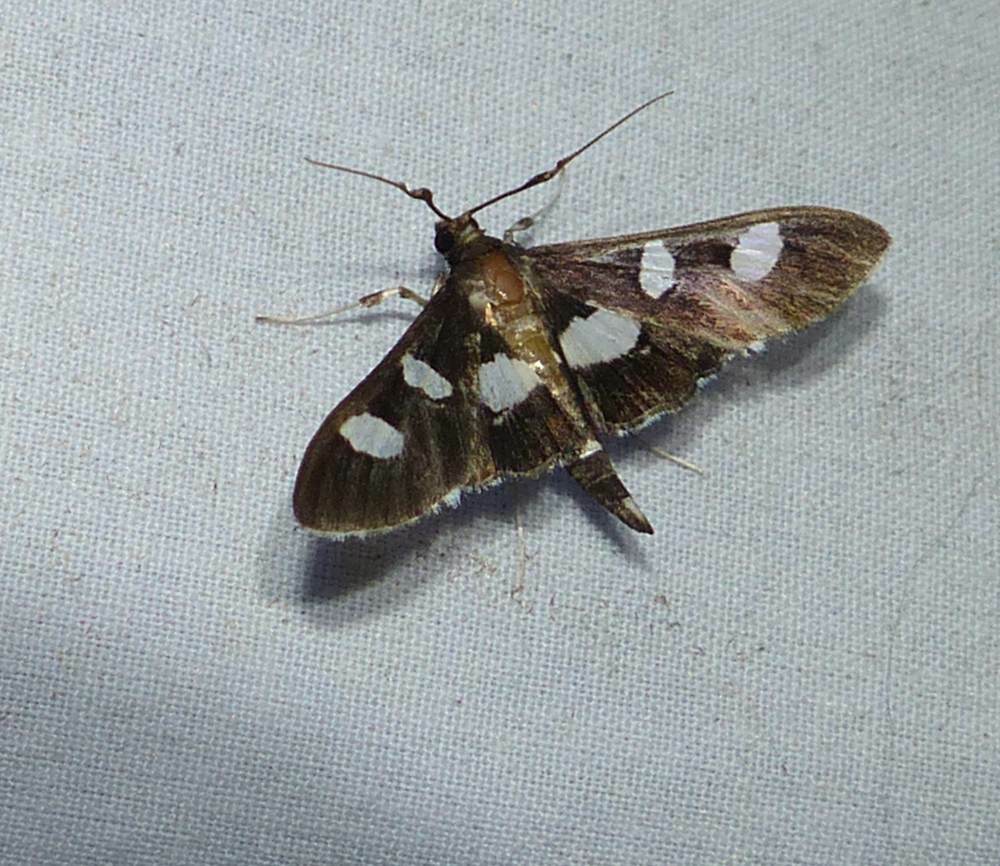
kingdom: Animalia
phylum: Arthropoda
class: Insecta
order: Lepidoptera
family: Crambidae
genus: Desmia
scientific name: Desmia
